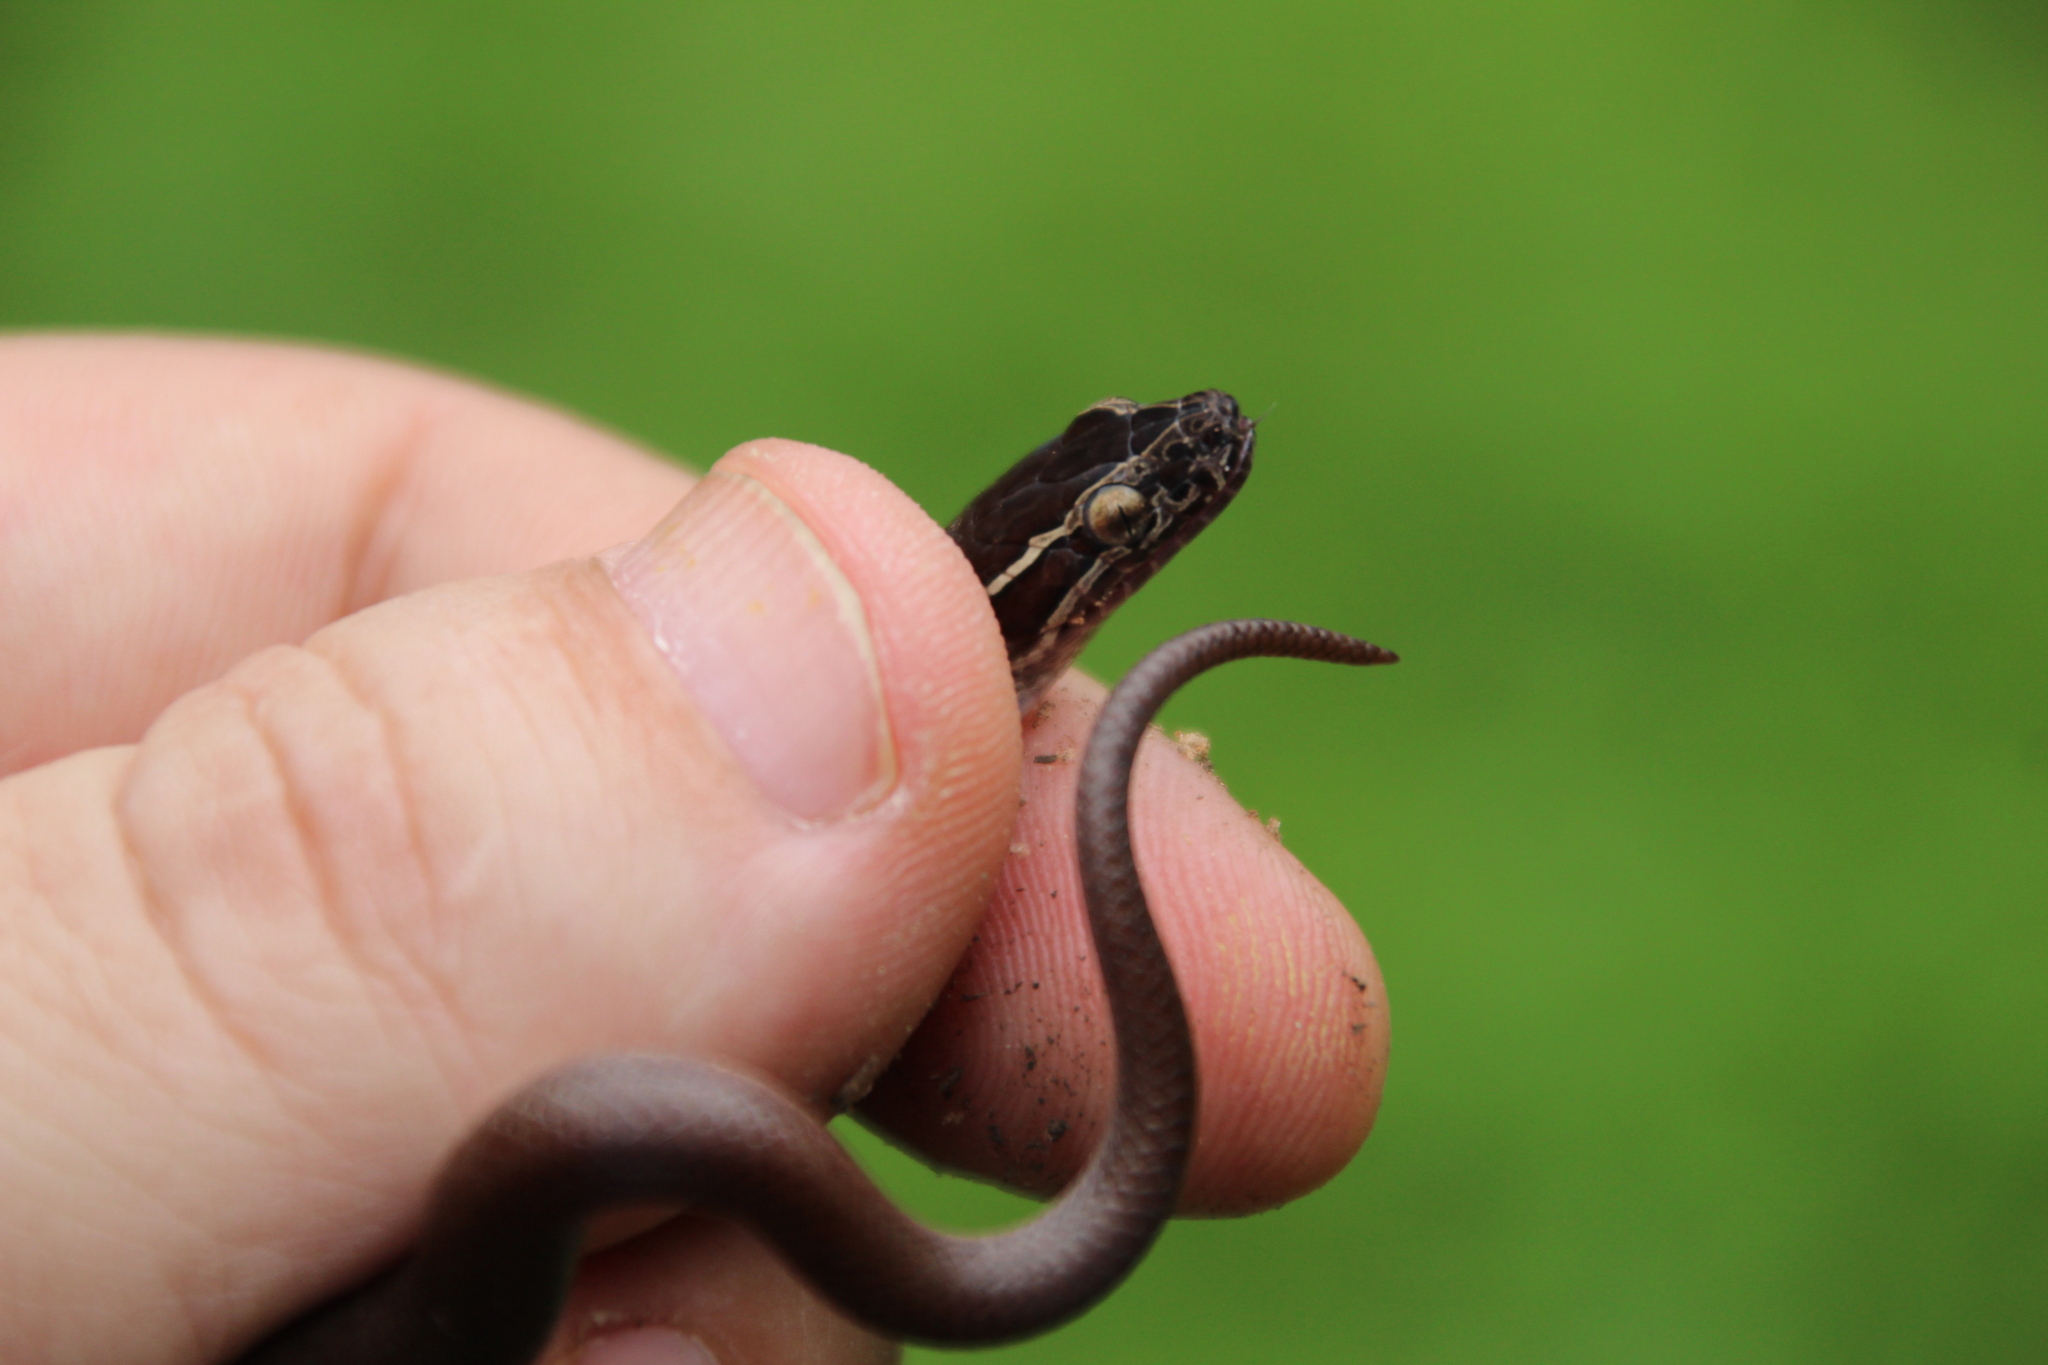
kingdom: Animalia
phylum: Chordata
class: Squamata
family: Lamprophiidae
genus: Boaedon
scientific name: Boaedon capensis
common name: Brown house snake
